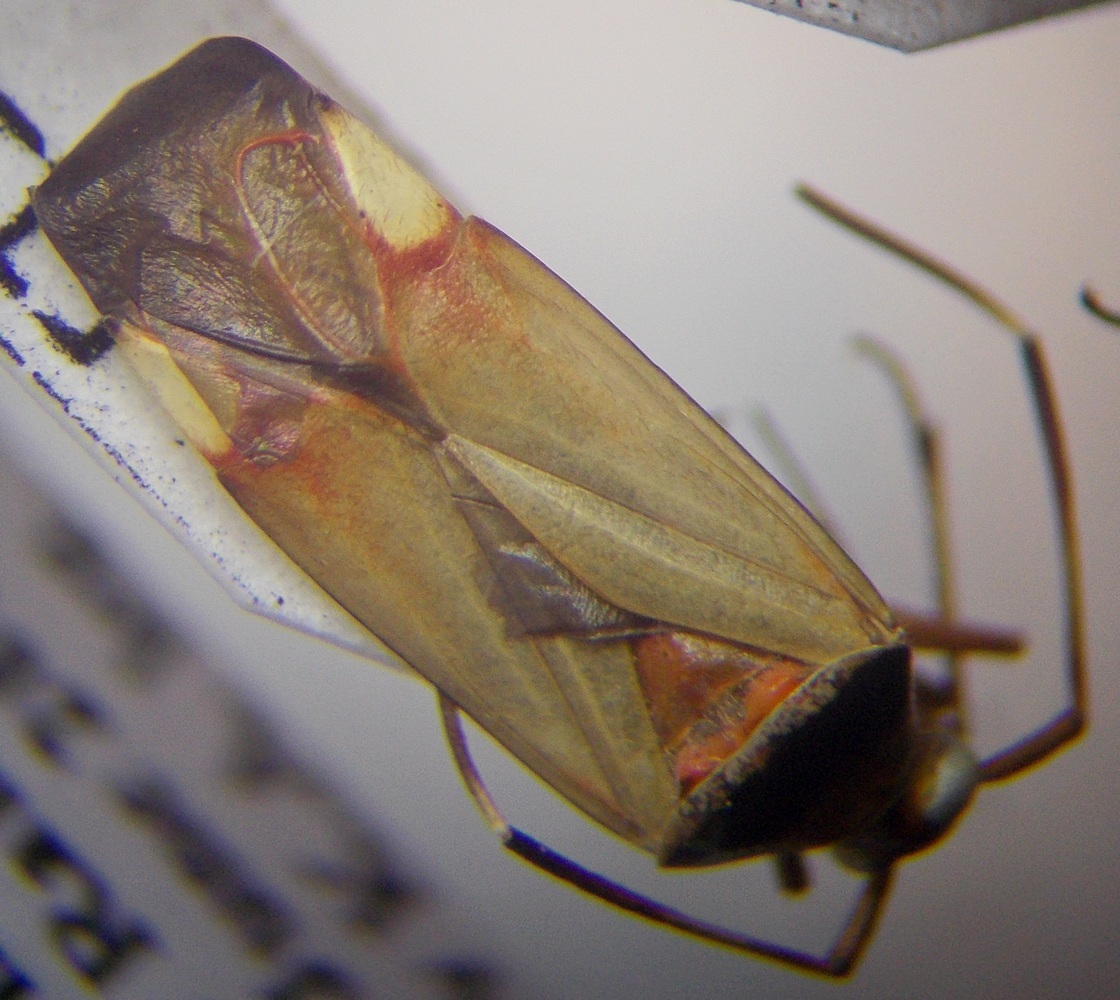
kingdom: Animalia
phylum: Arthropoda
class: Insecta
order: Hemiptera
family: Miridae
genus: Adelphocoris
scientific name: Adelphocoris vandalicus
